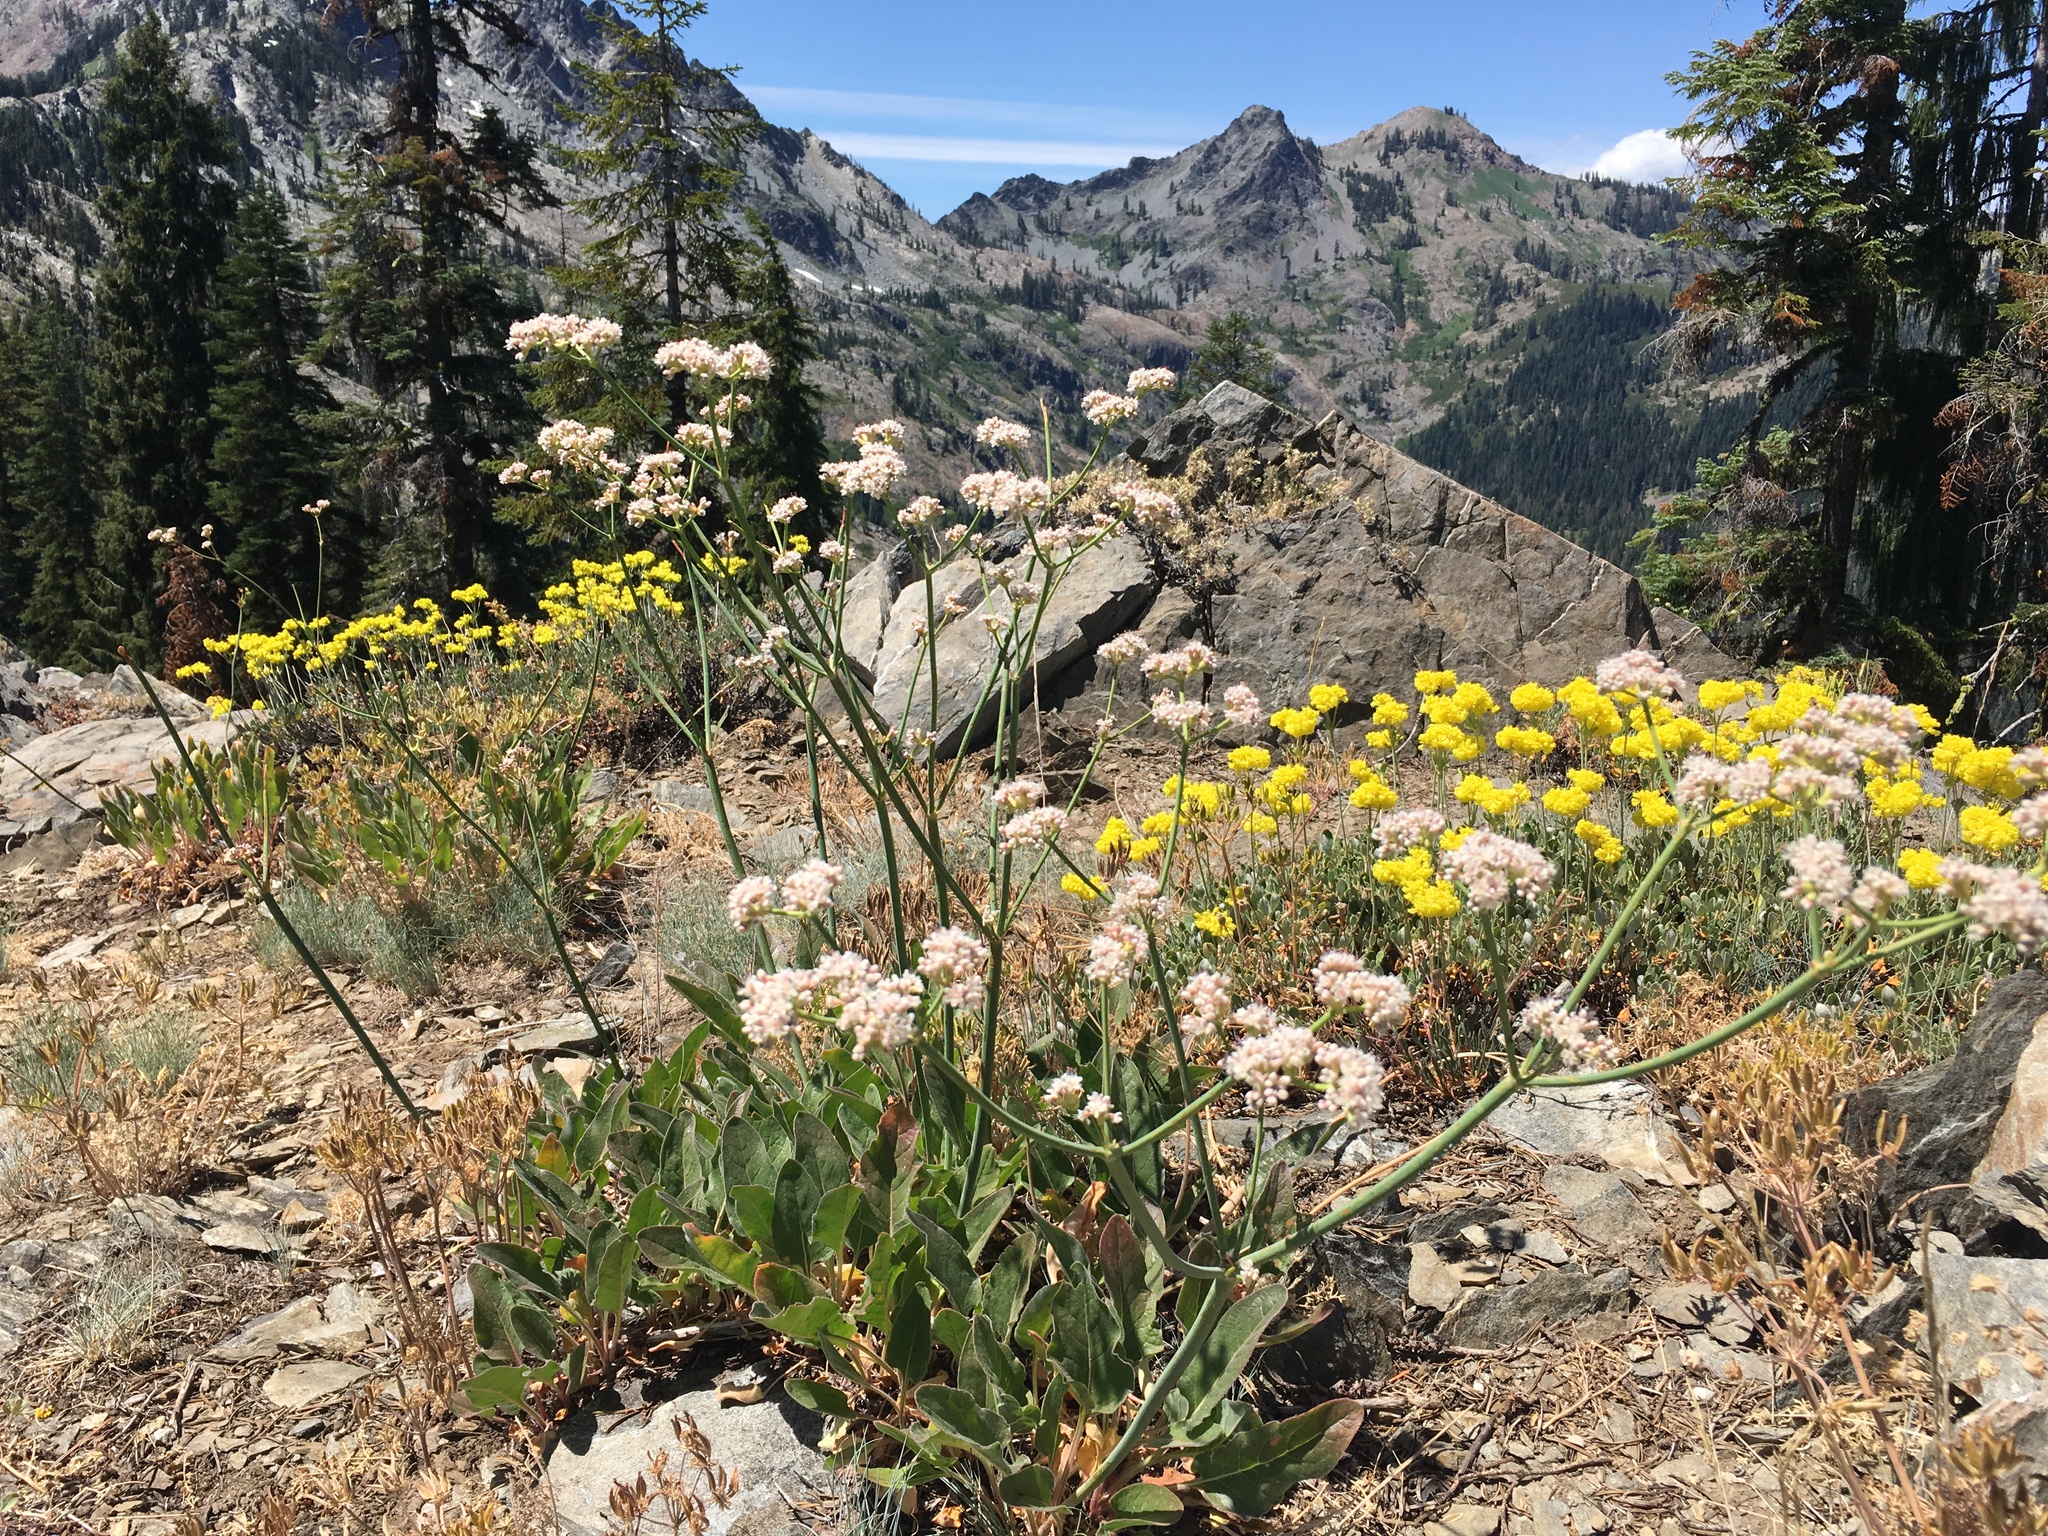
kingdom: Plantae
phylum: Tracheophyta
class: Magnoliopsida
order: Caryophyllales
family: Polygonaceae
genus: Eriogonum
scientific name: Eriogonum elatum
